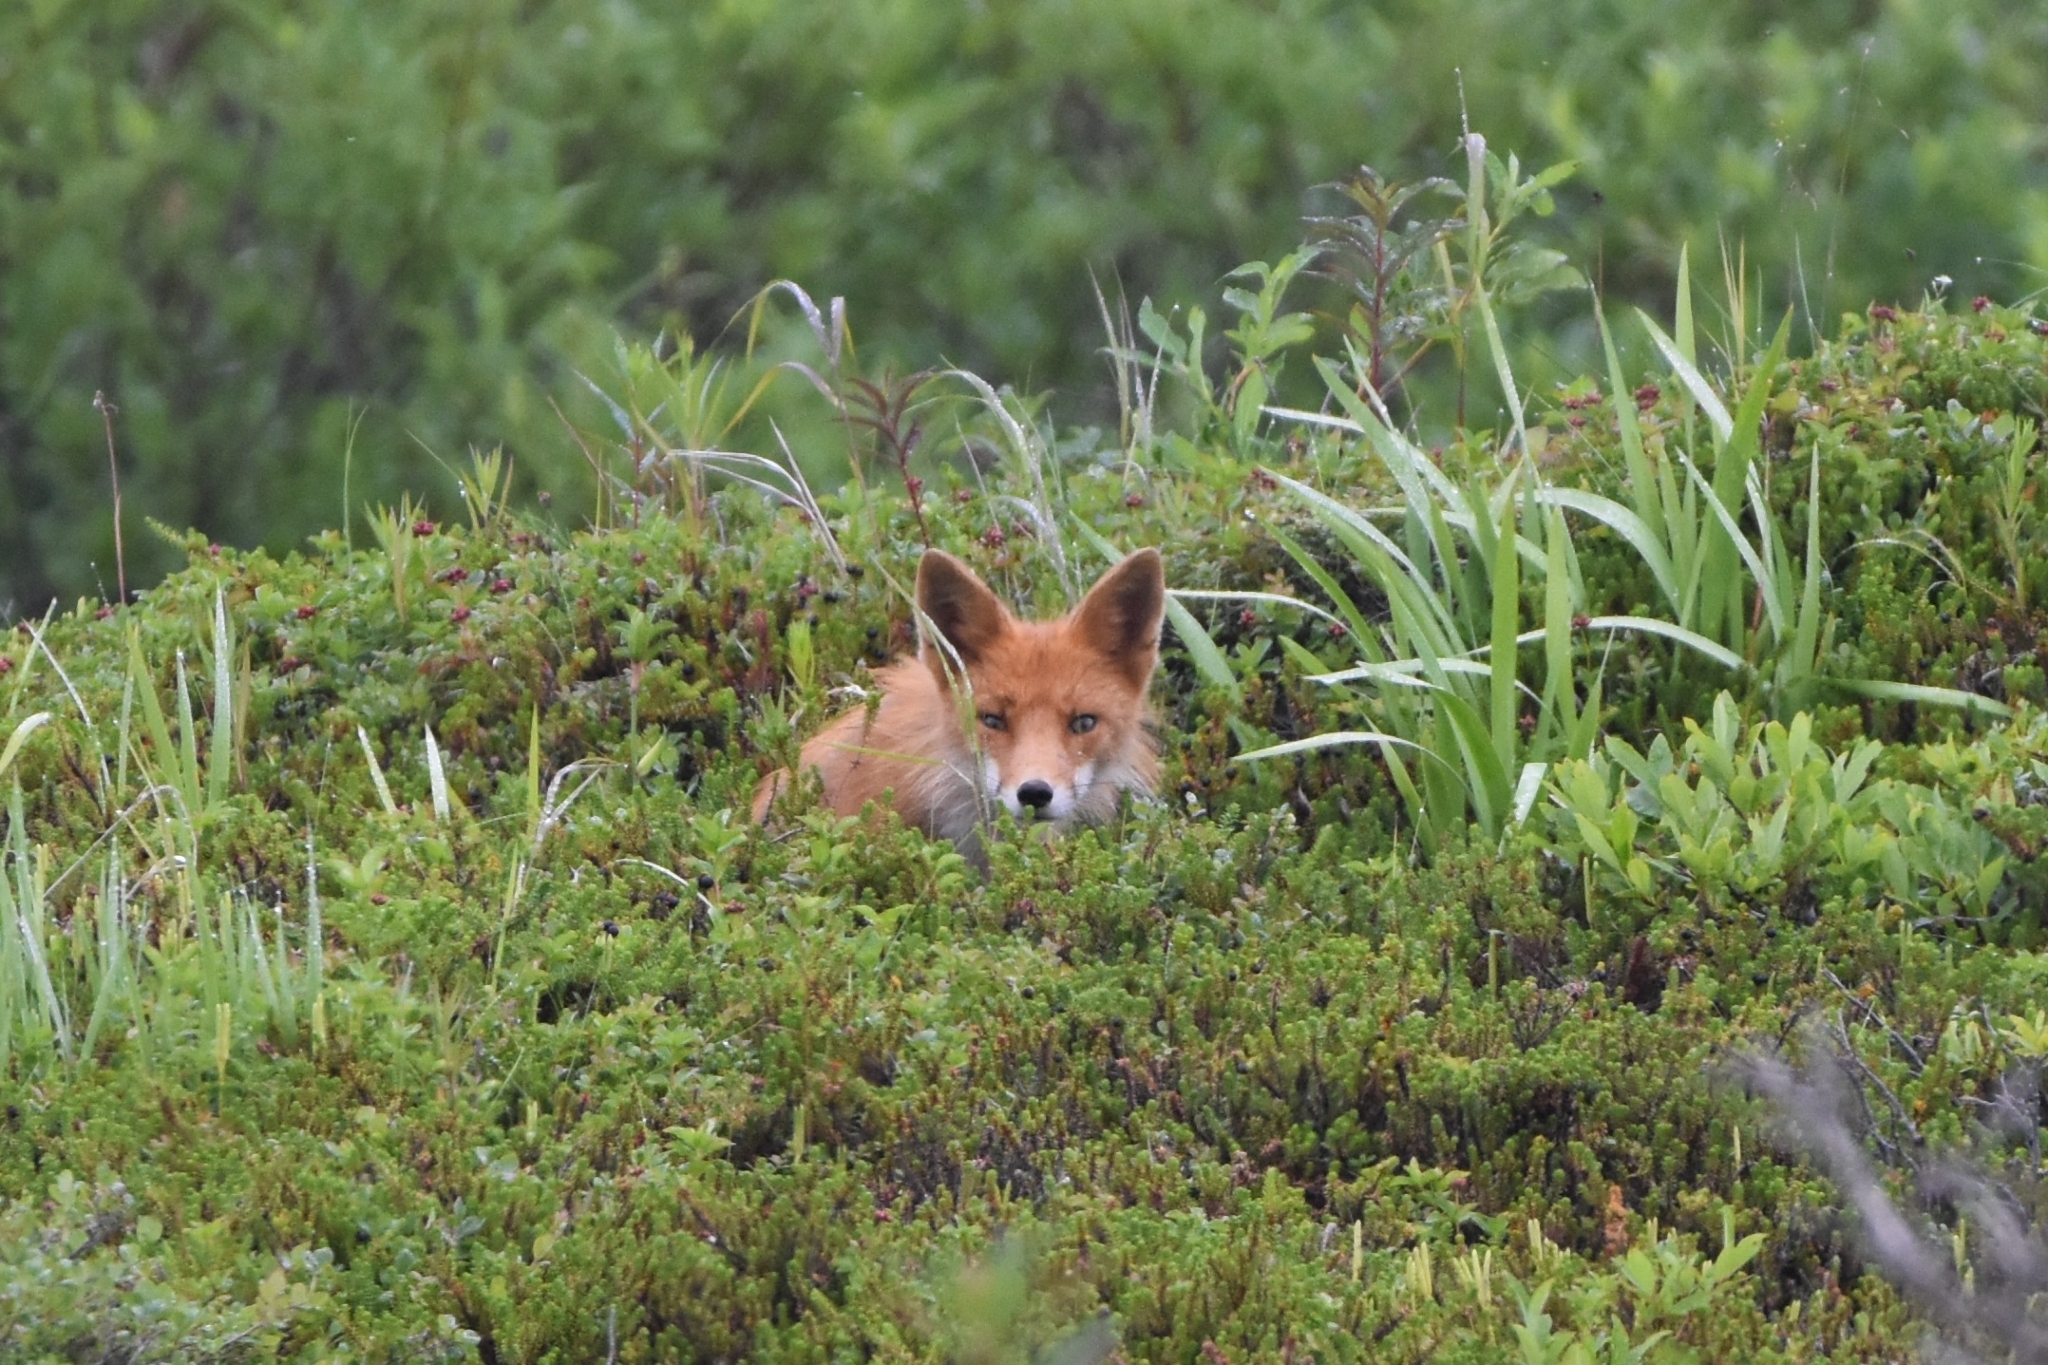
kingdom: Animalia
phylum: Chordata
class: Mammalia
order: Carnivora
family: Canidae
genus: Vulpes
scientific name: Vulpes vulpes
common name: Red fox
